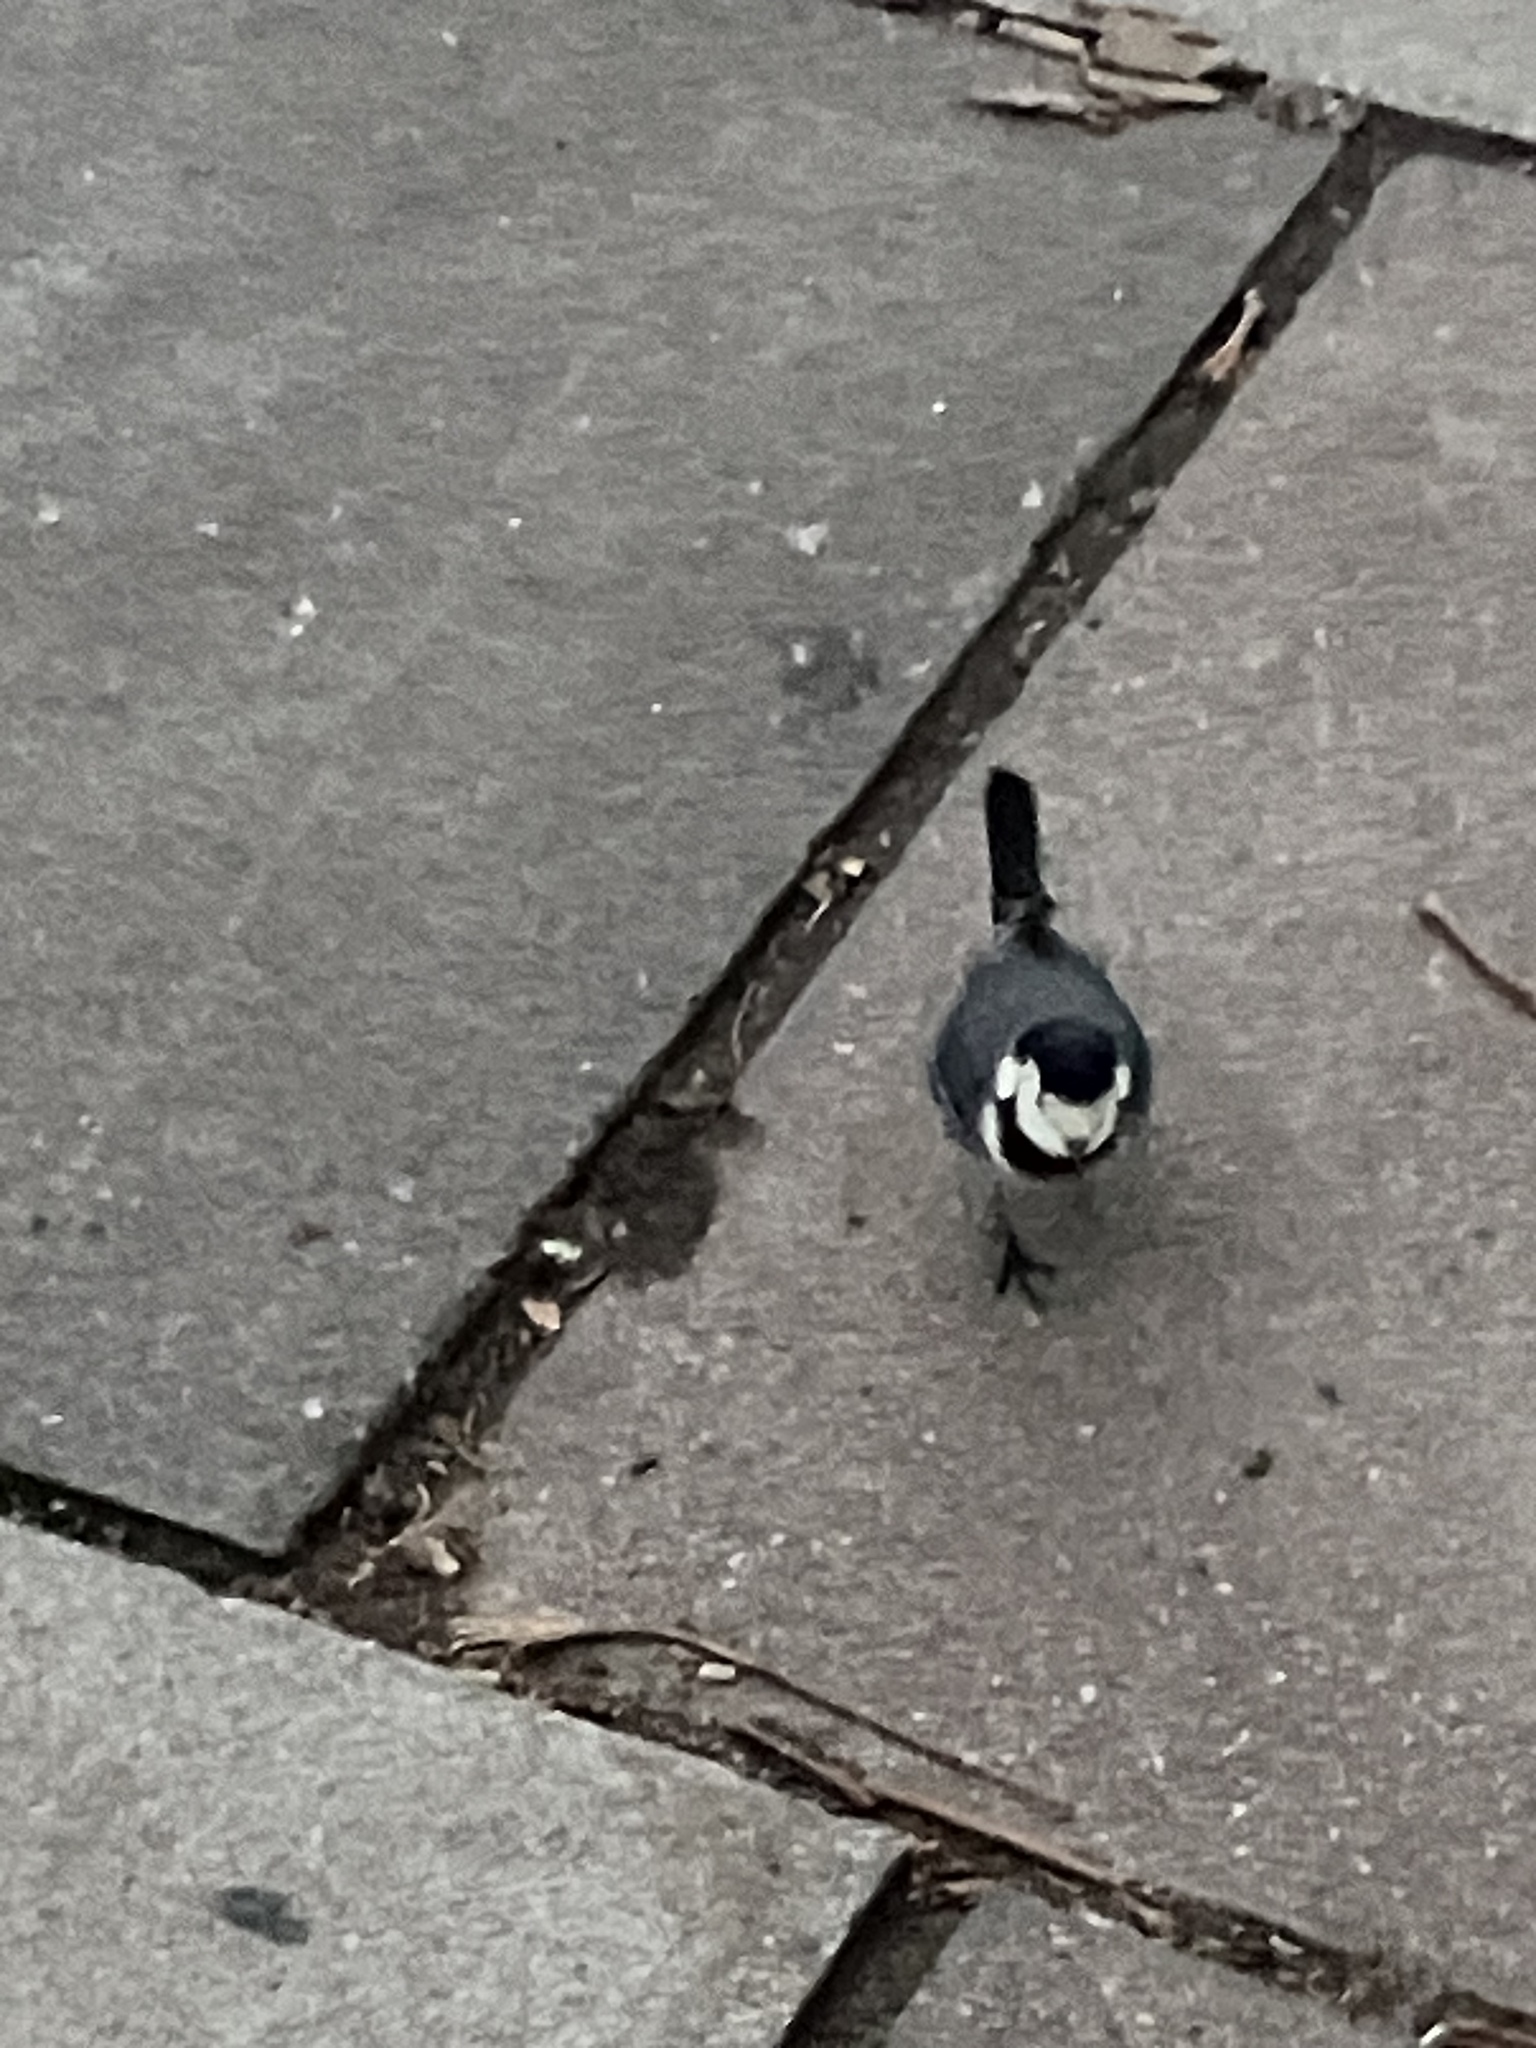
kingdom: Animalia
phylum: Chordata
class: Aves
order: Passeriformes
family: Motacillidae
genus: Motacilla
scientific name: Motacilla alba
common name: White wagtail
